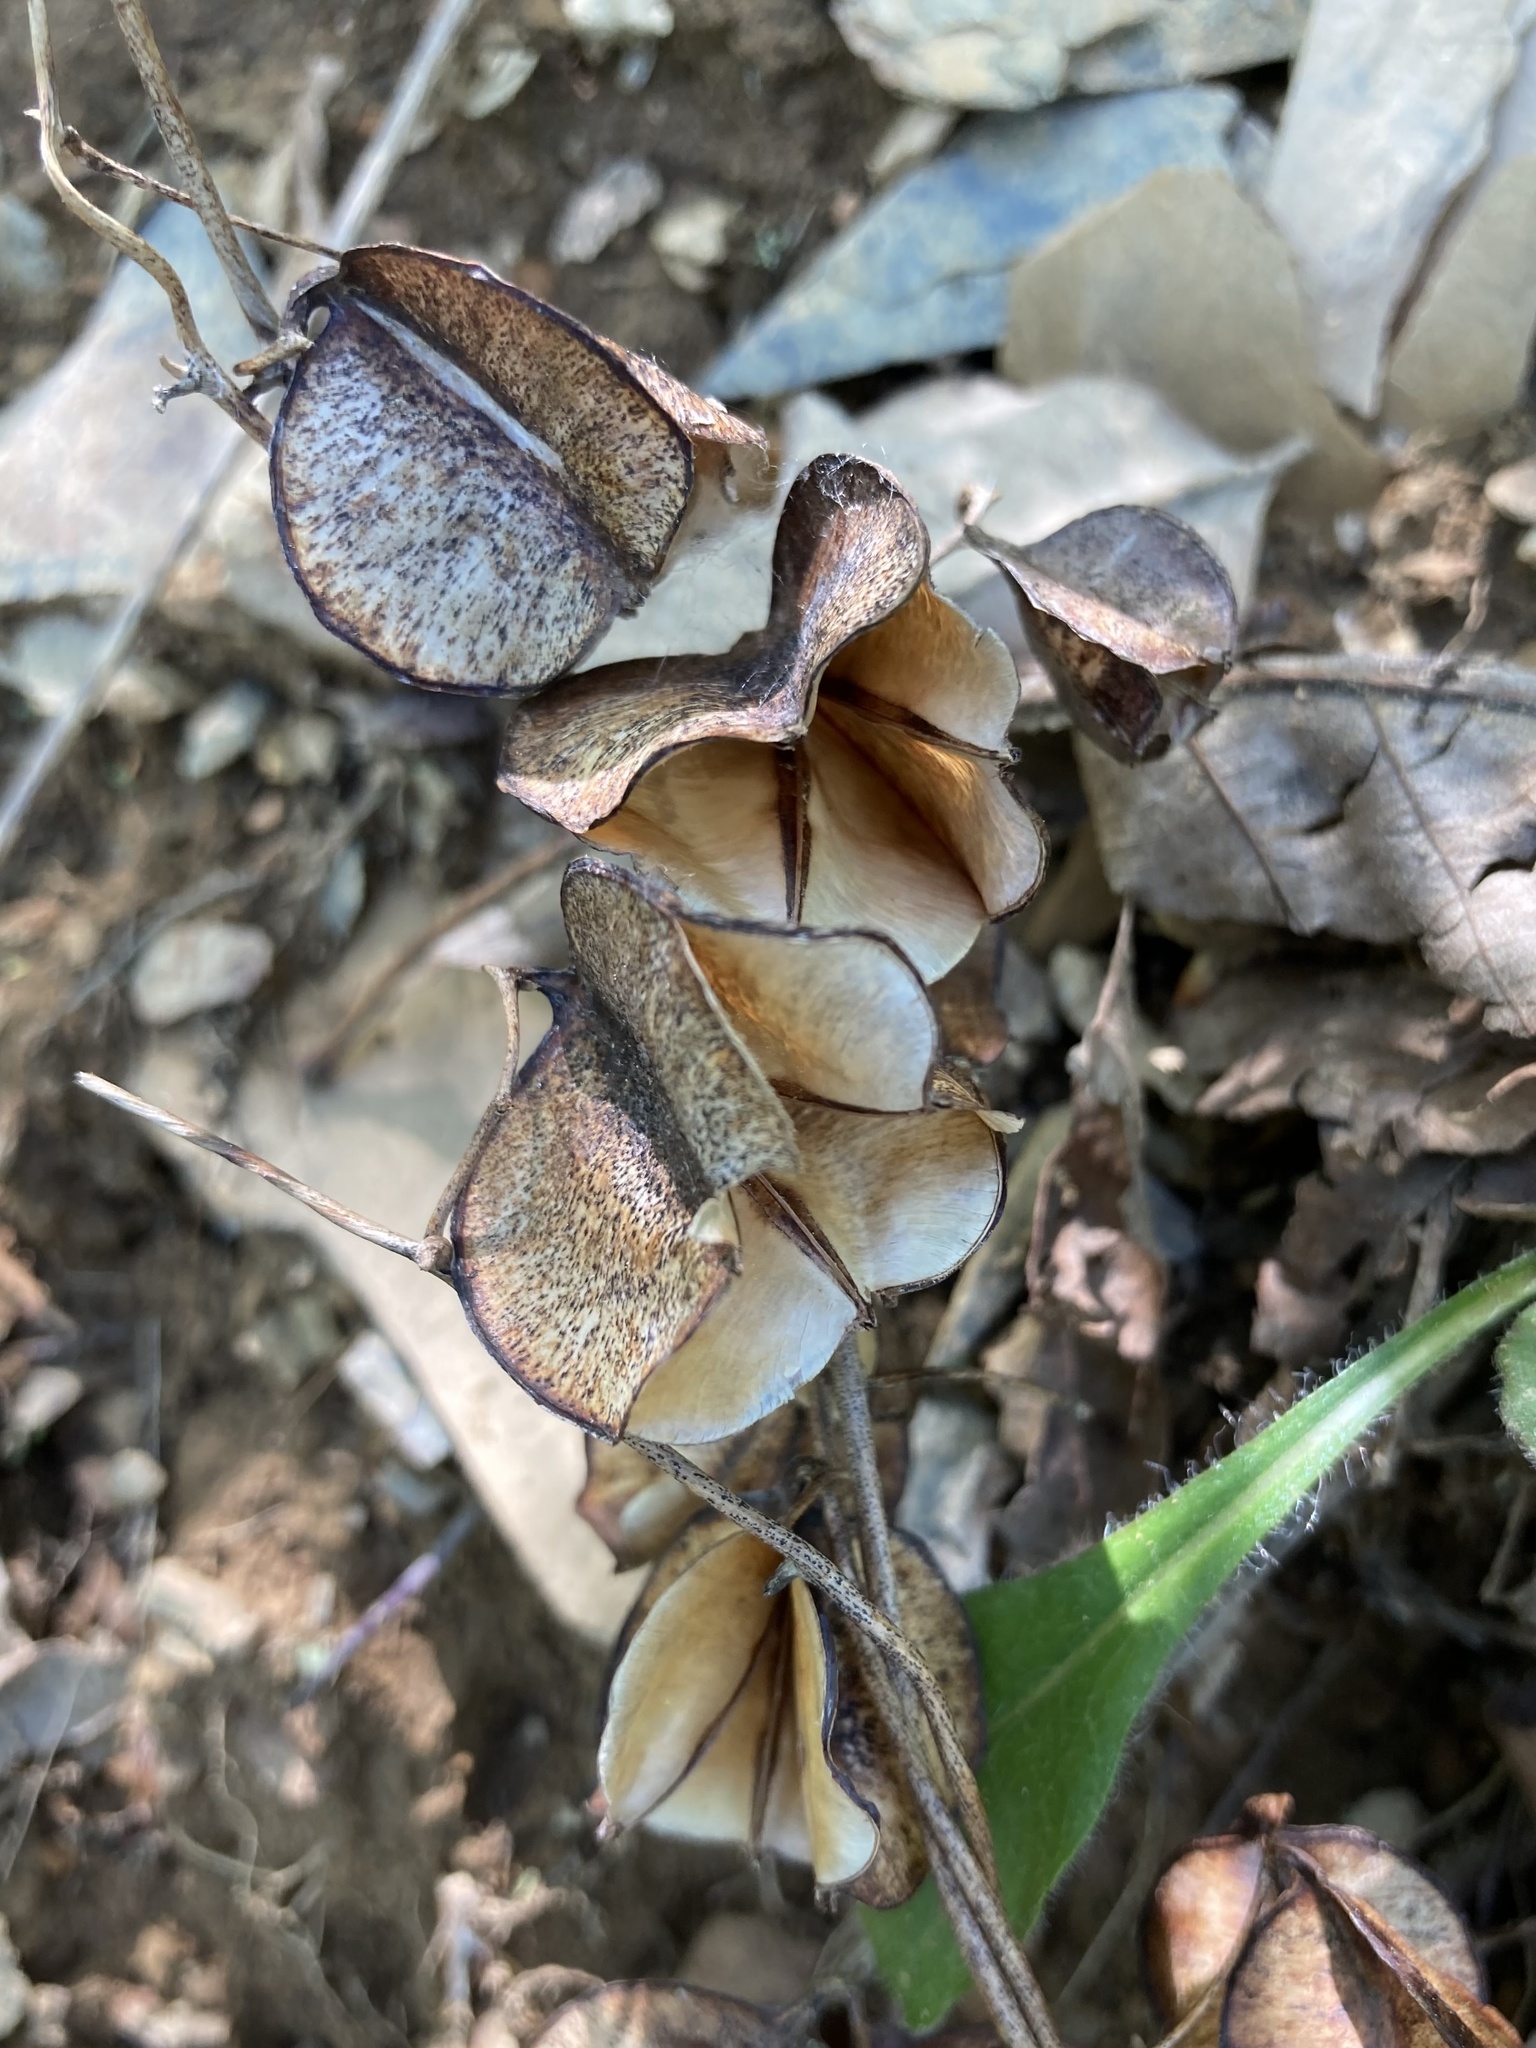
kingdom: Plantae
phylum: Tracheophyta
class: Liliopsida
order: Dioscoreales
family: Dioscoreaceae
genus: Dioscorea
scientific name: Dioscorea villosa
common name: Wild yam
